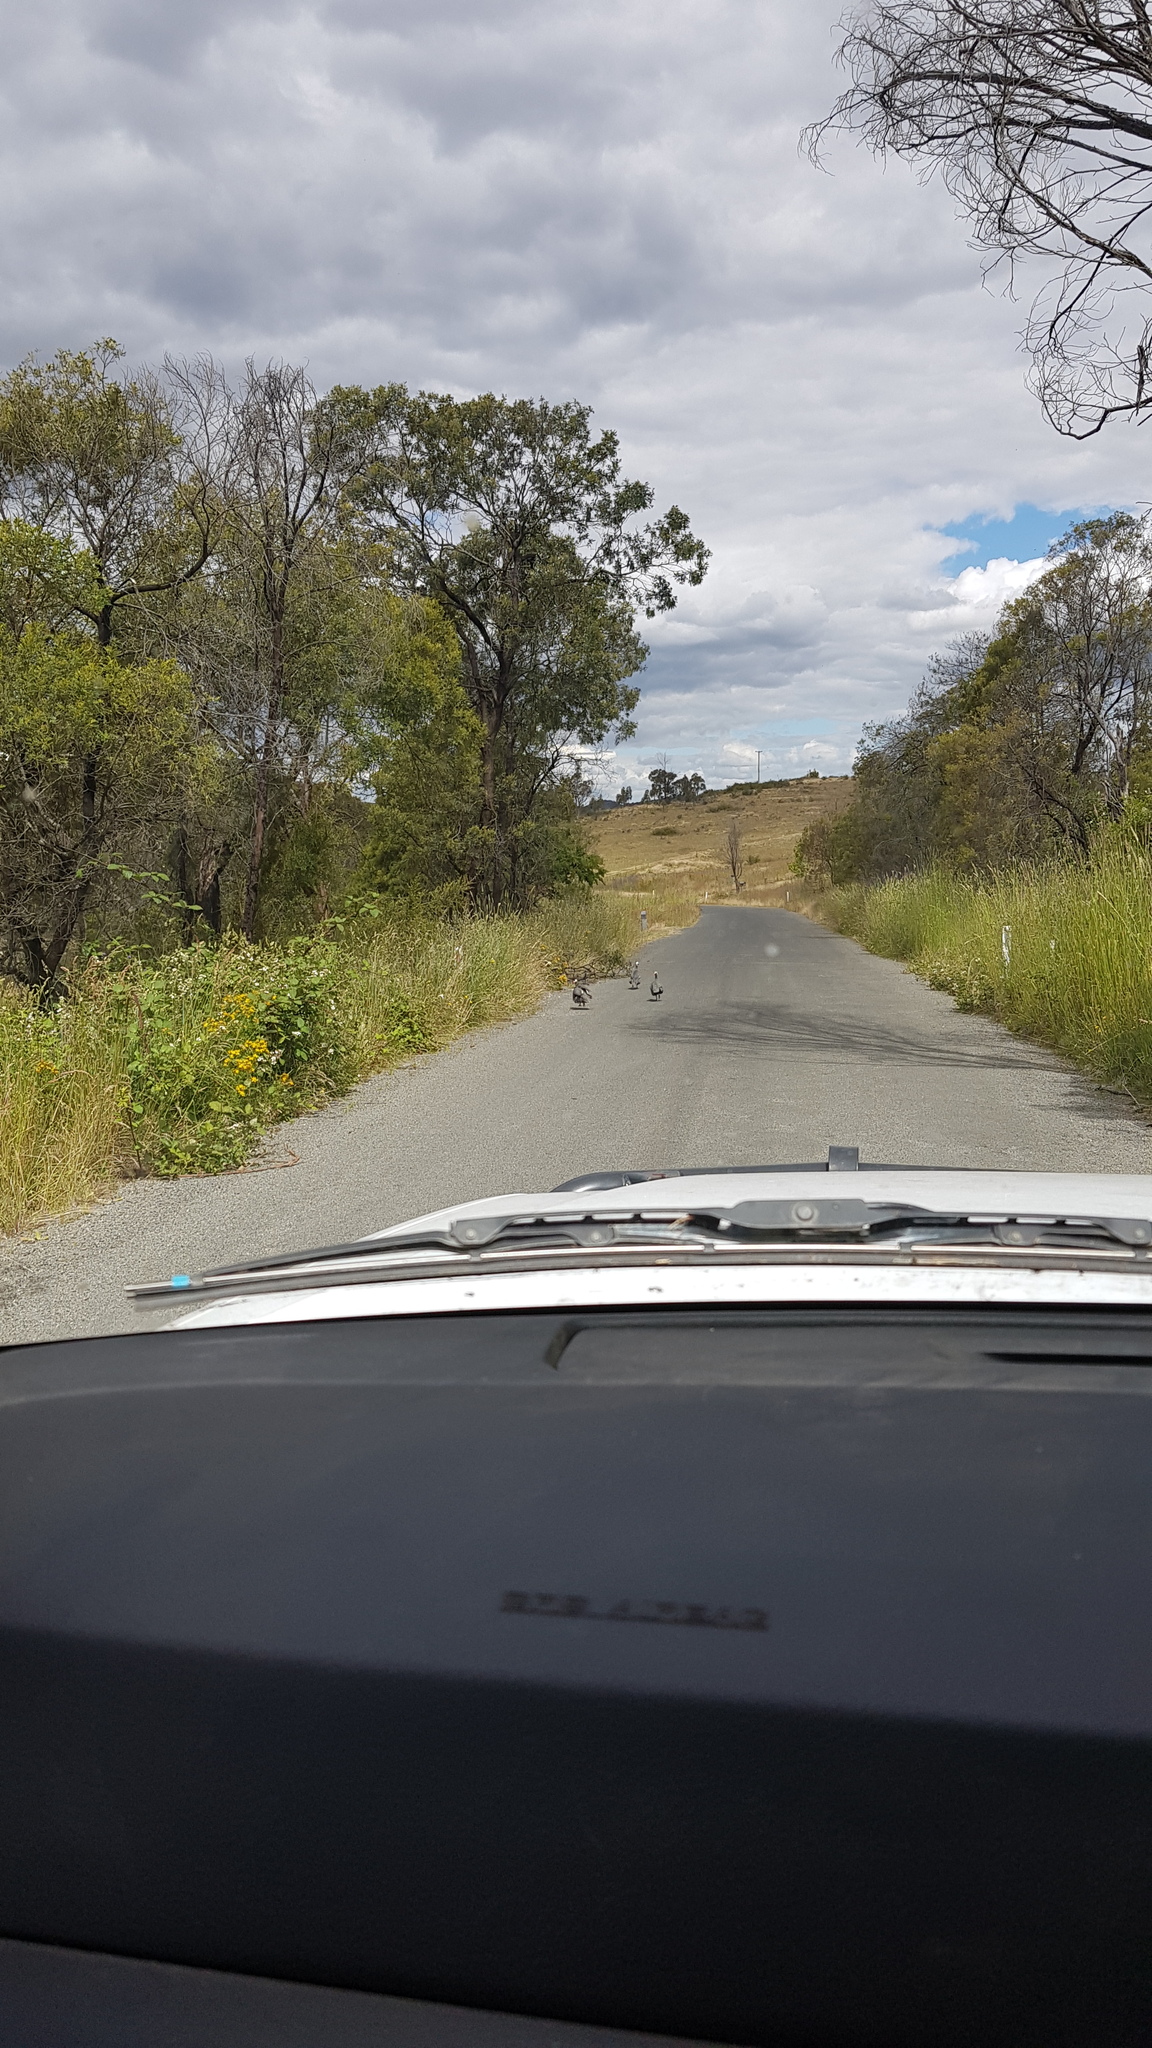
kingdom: Animalia
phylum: Chordata
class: Aves
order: Galliformes
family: Numididae
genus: Numida
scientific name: Numida meleagris
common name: Helmeted guineafowl
